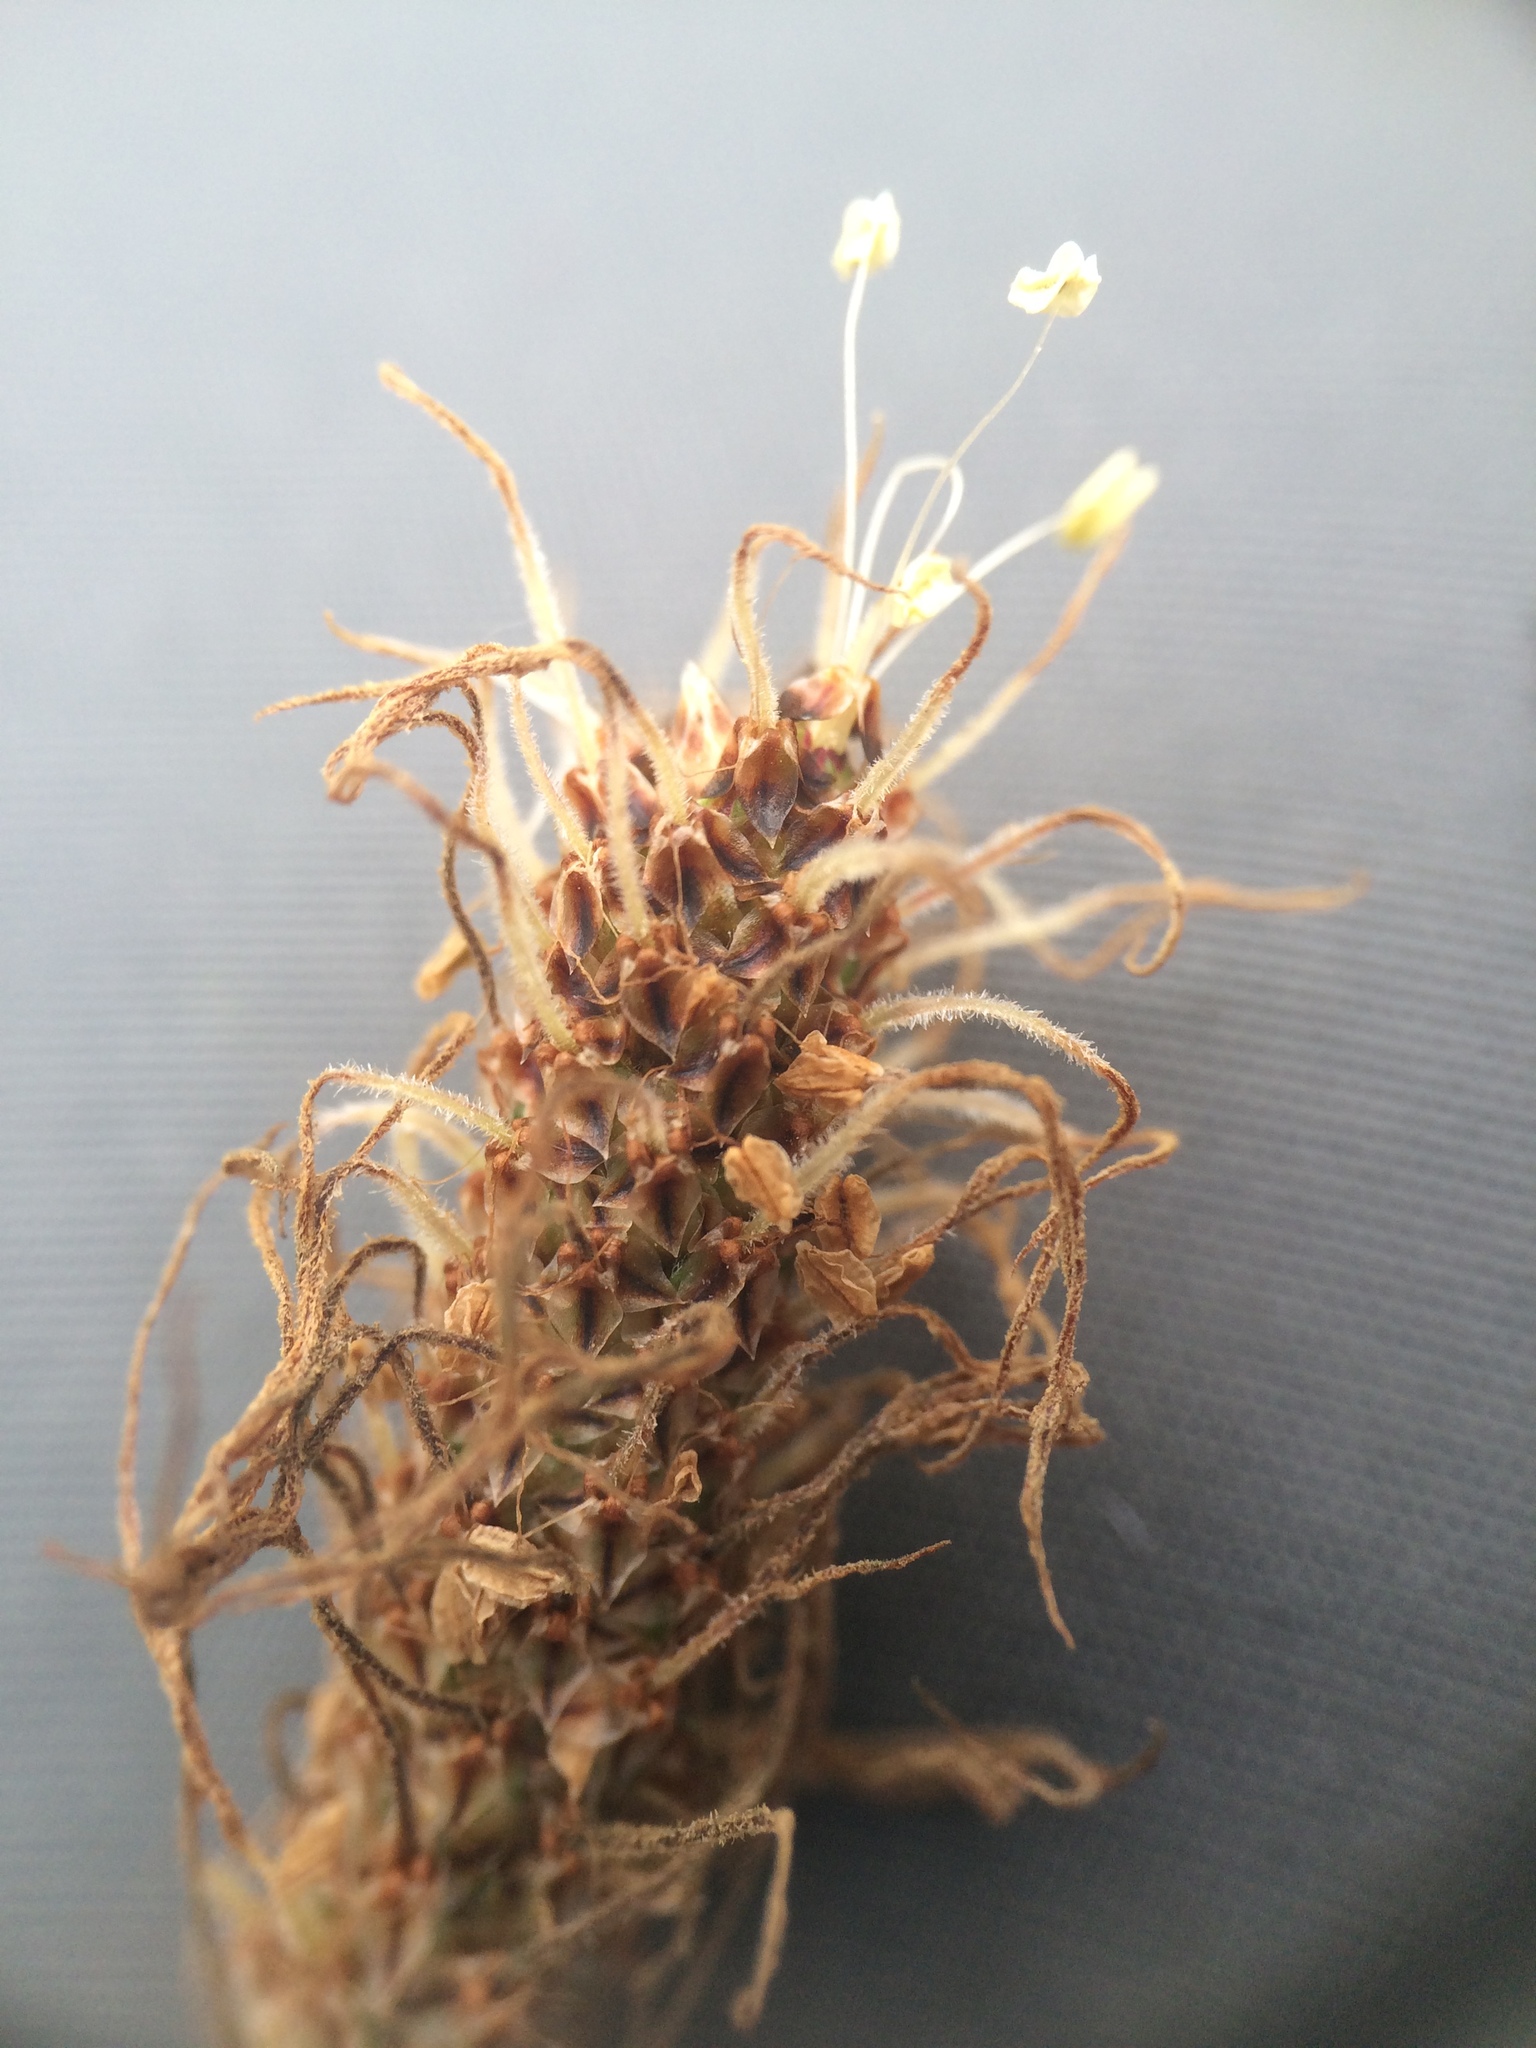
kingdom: Plantae
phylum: Tracheophyta
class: Magnoliopsida
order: Lamiales
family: Plantaginaceae
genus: Plantago
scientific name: Plantago lanceolata
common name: Ribwort plantain
